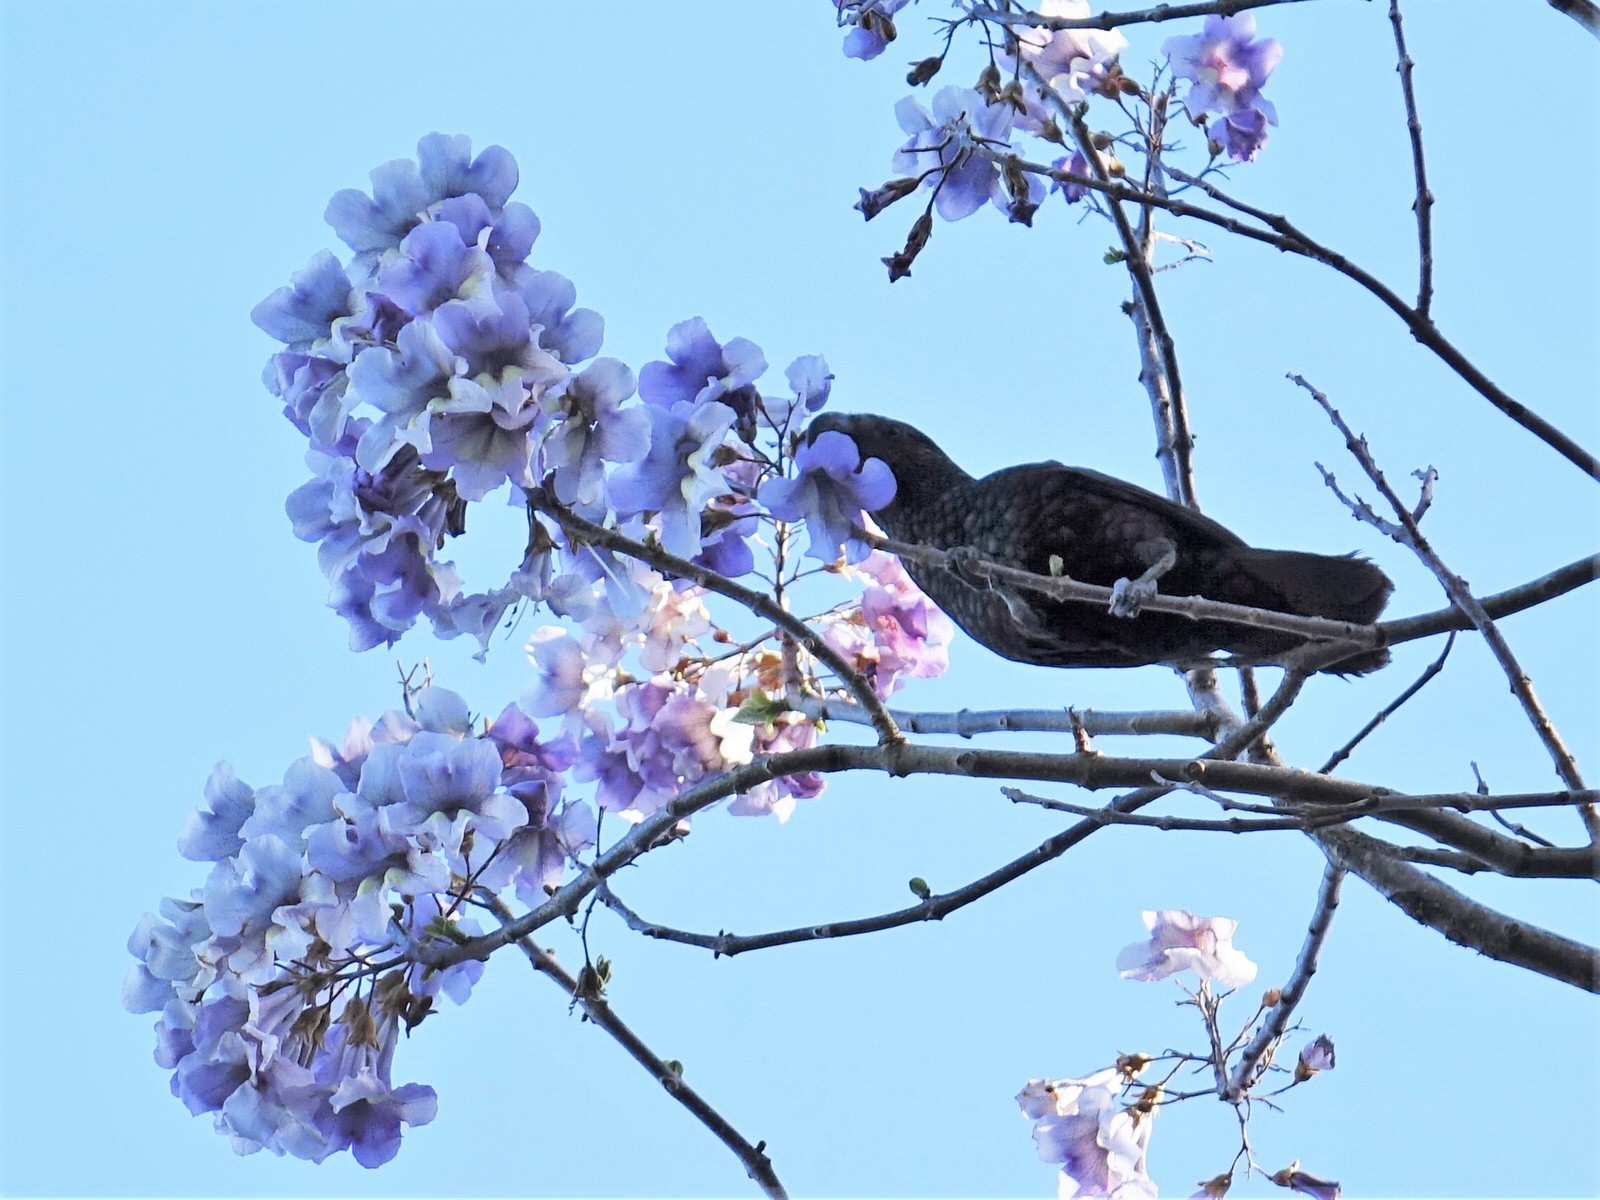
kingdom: Animalia
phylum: Chordata
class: Aves
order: Psittaciformes
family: Psittacidae
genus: Nestor
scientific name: Nestor meridionalis
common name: New zealand kaka
